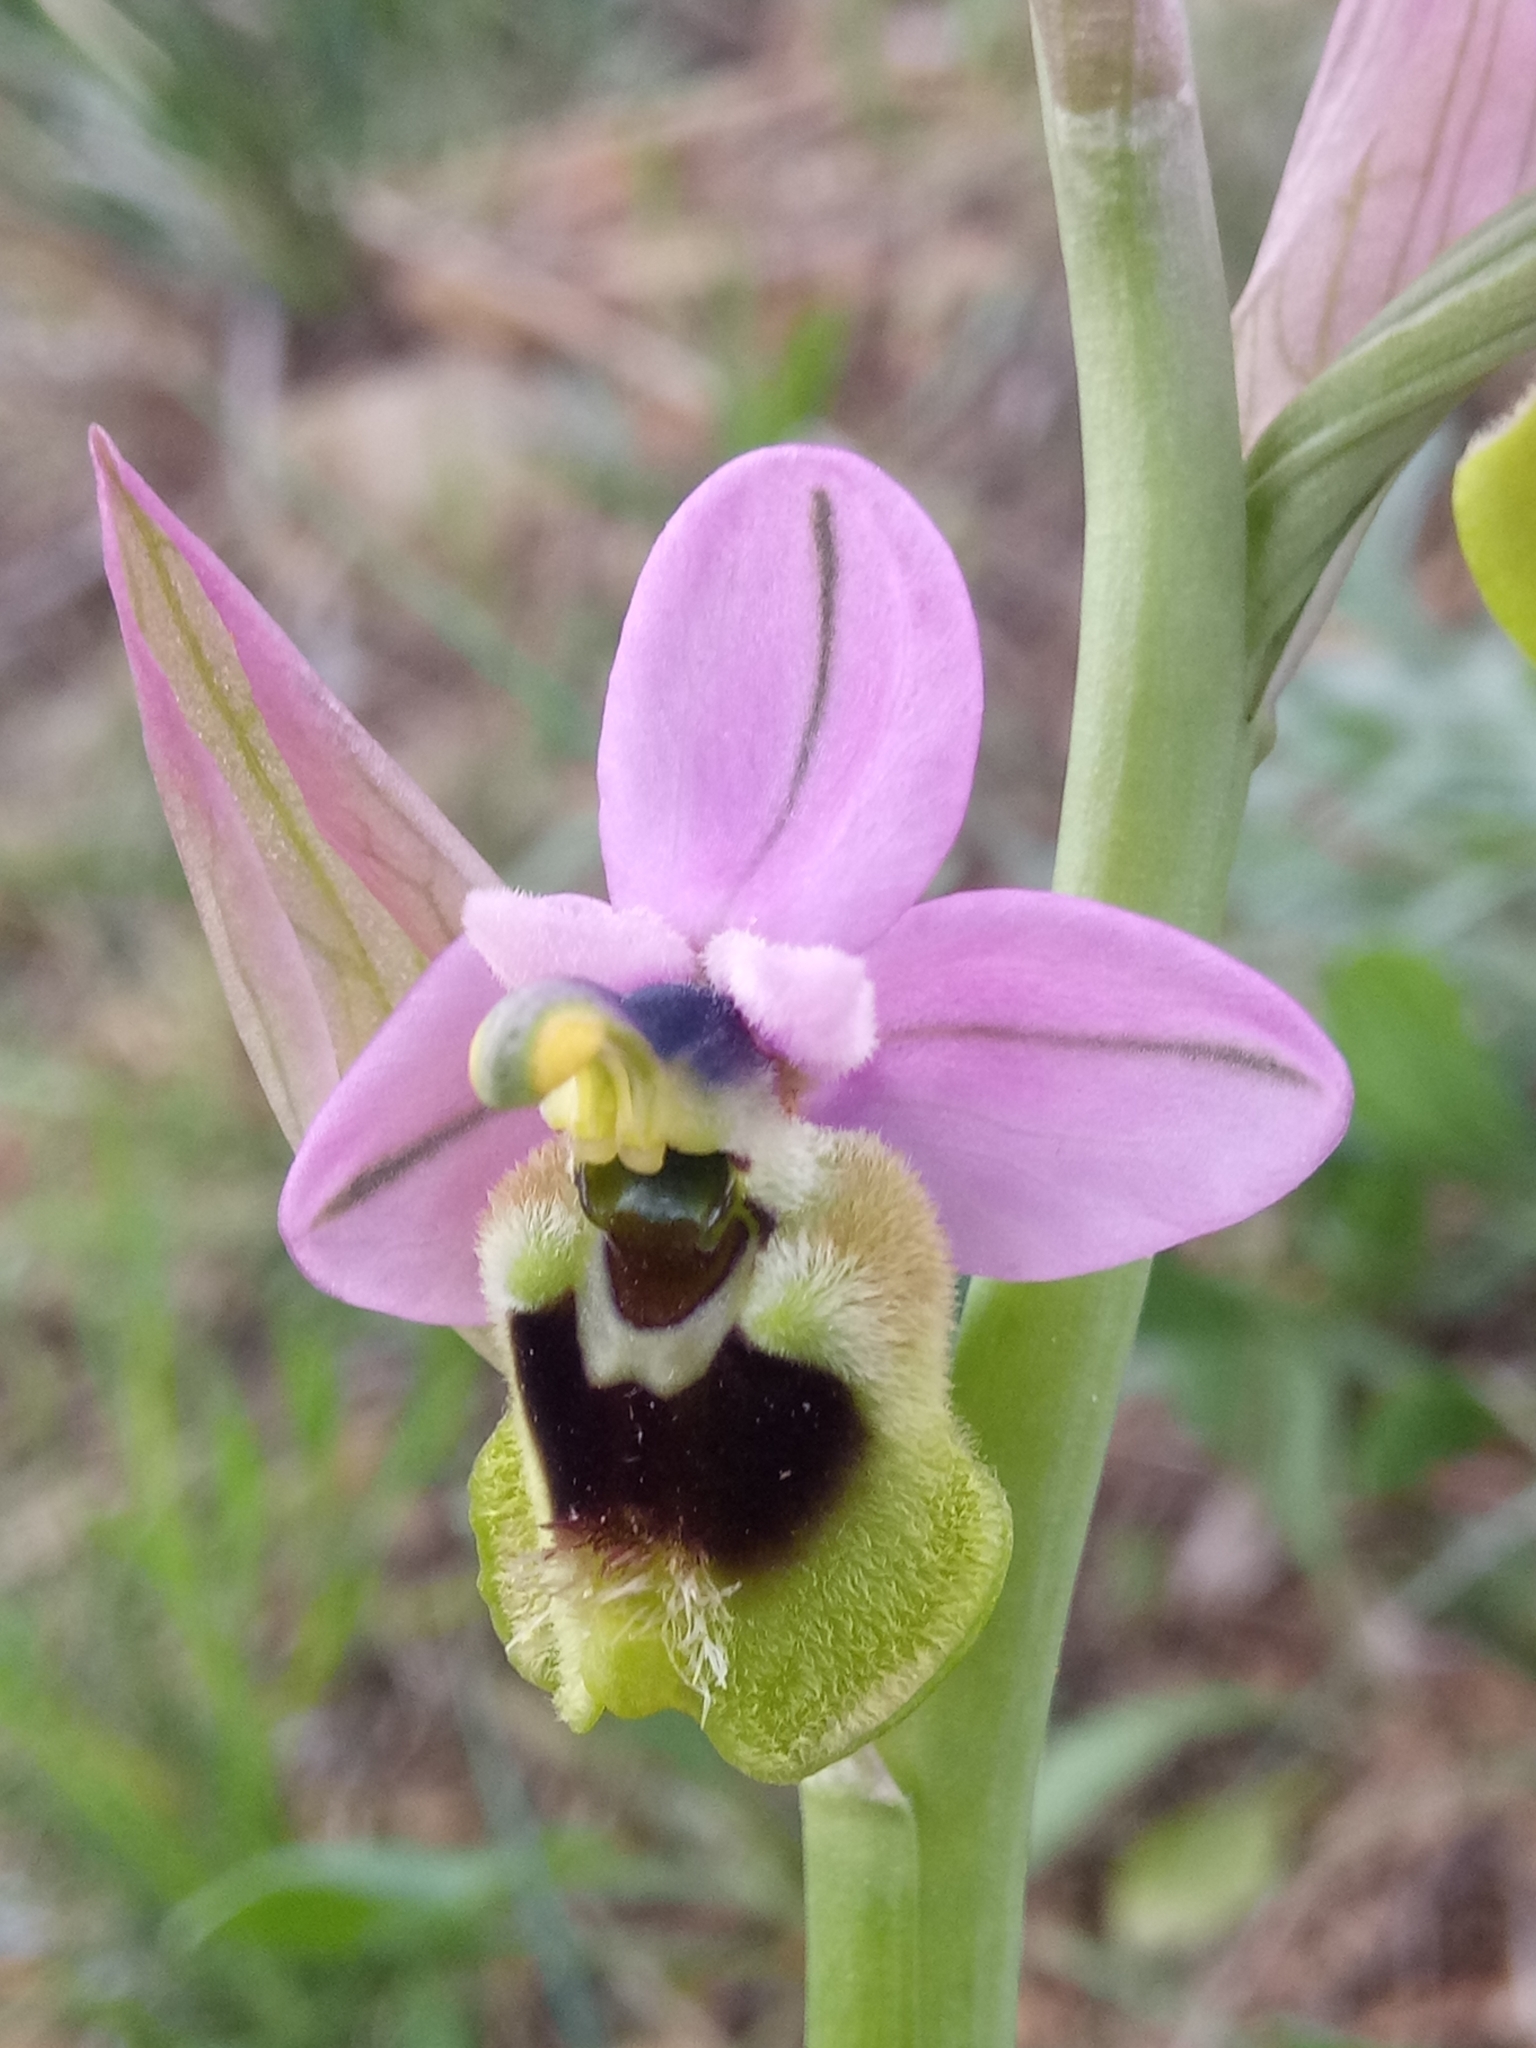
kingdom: Plantae
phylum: Tracheophyta
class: Liliopsida
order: Asparagales
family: Orchidaceae
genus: Ophrys
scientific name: Ophrys tenthredinifera
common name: Sawfly orchid
